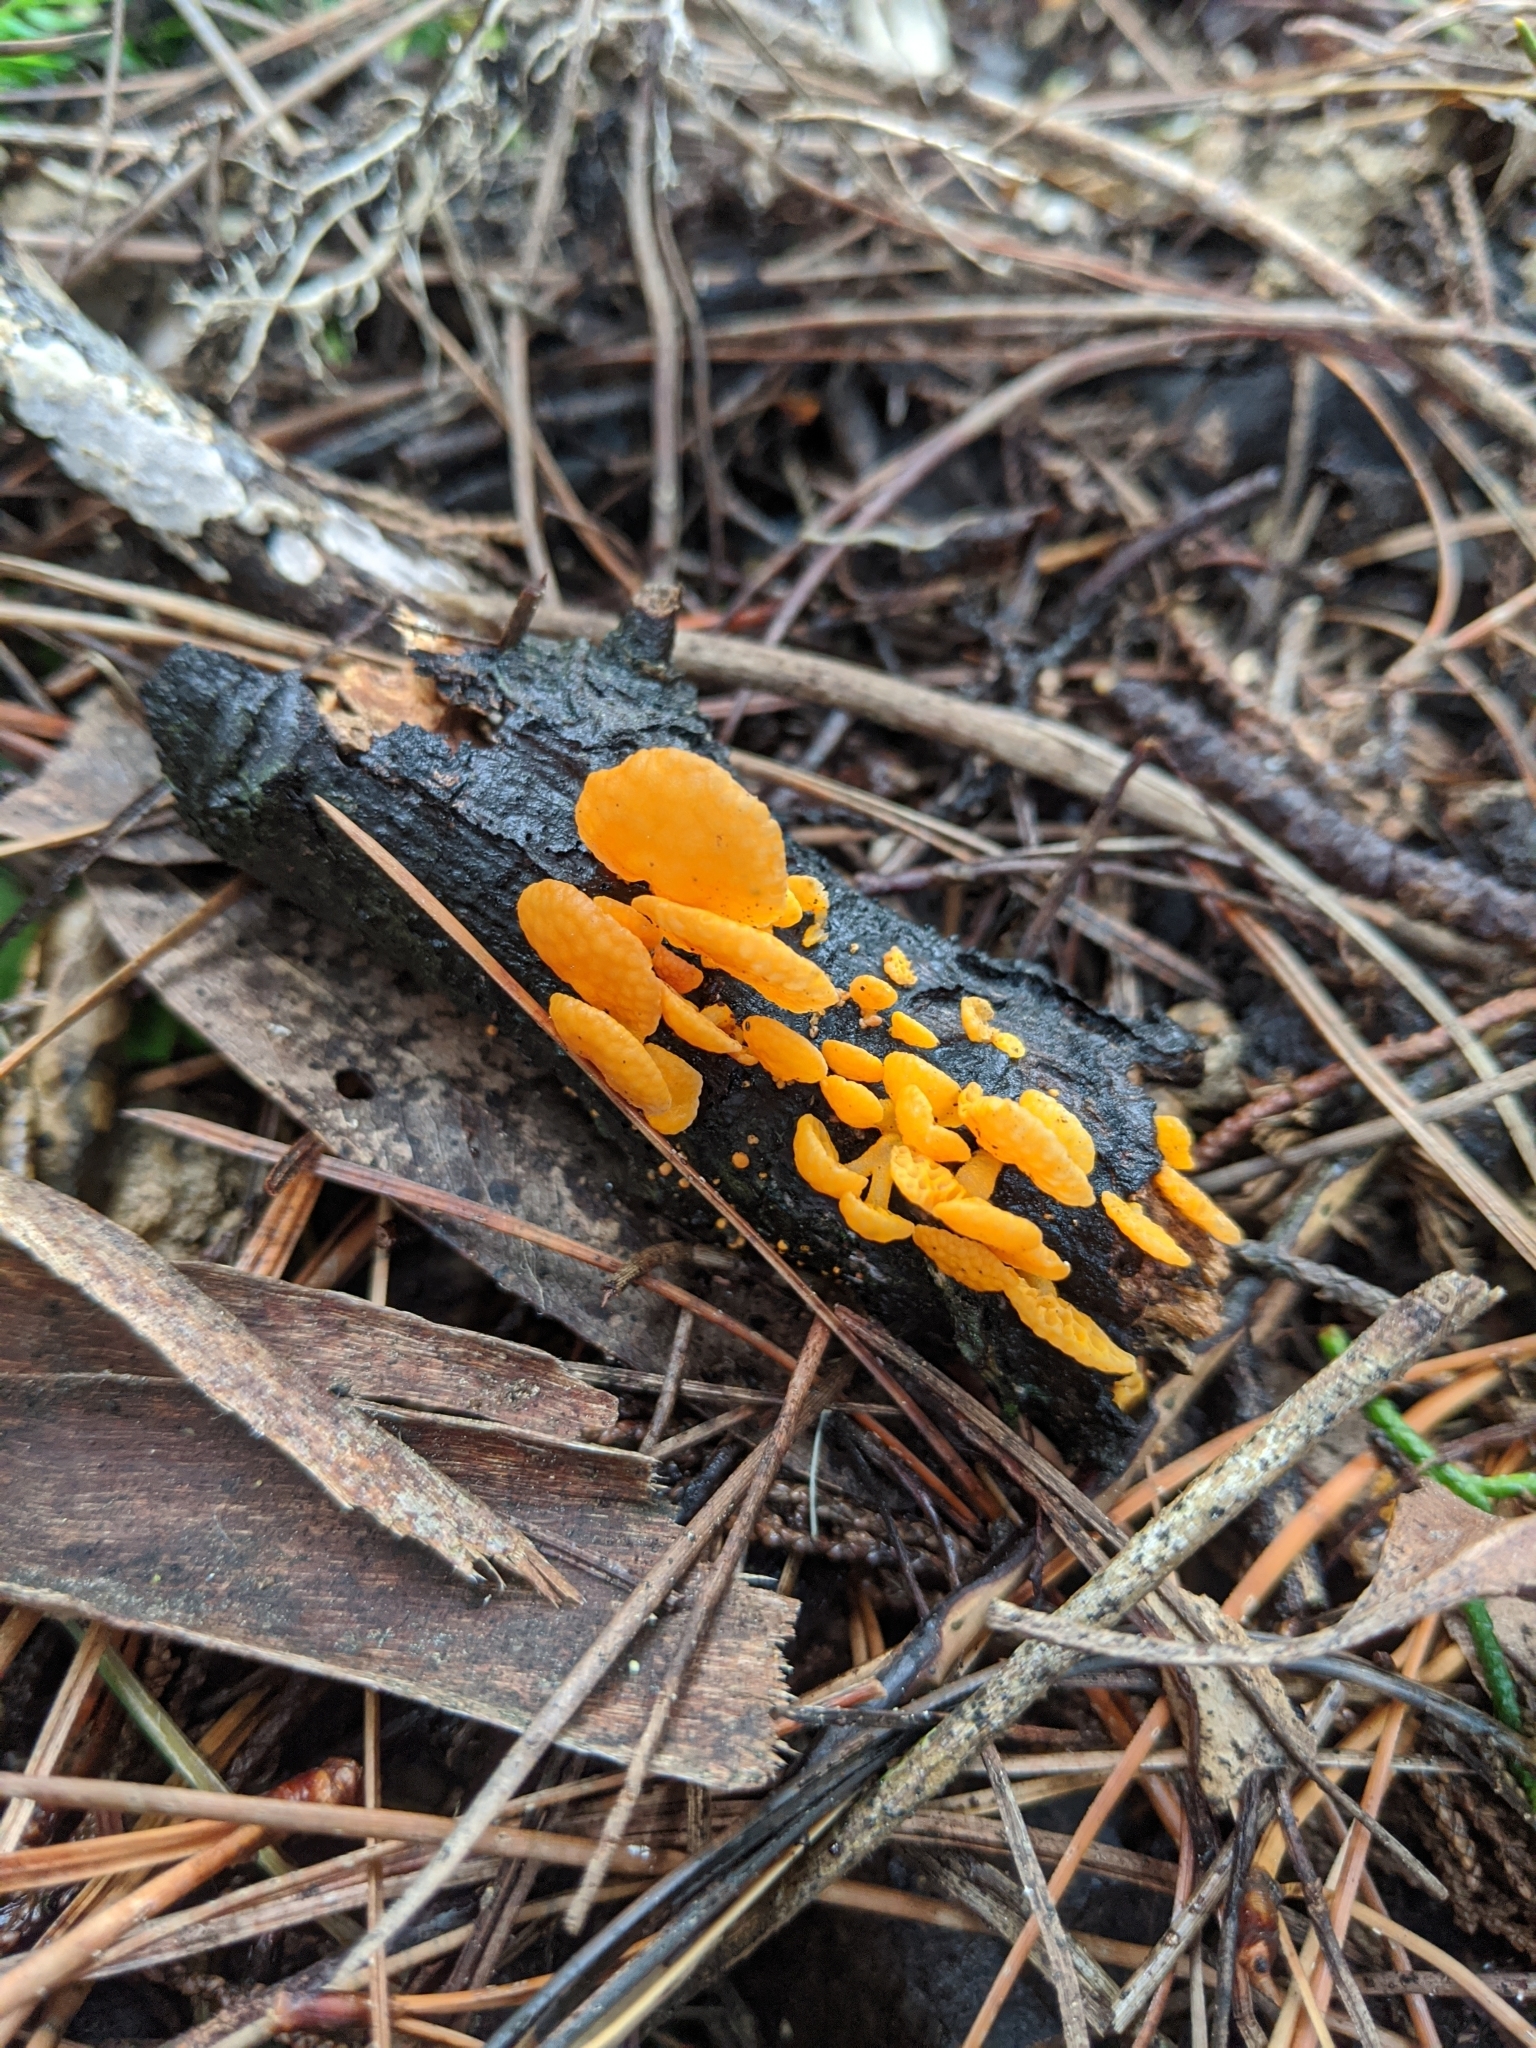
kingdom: Fungi
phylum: Basidiomycota
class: Agaricomycetes
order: Agaricales
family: Mycenaceae
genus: Favolaschia
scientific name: Favolaschia claudopus
